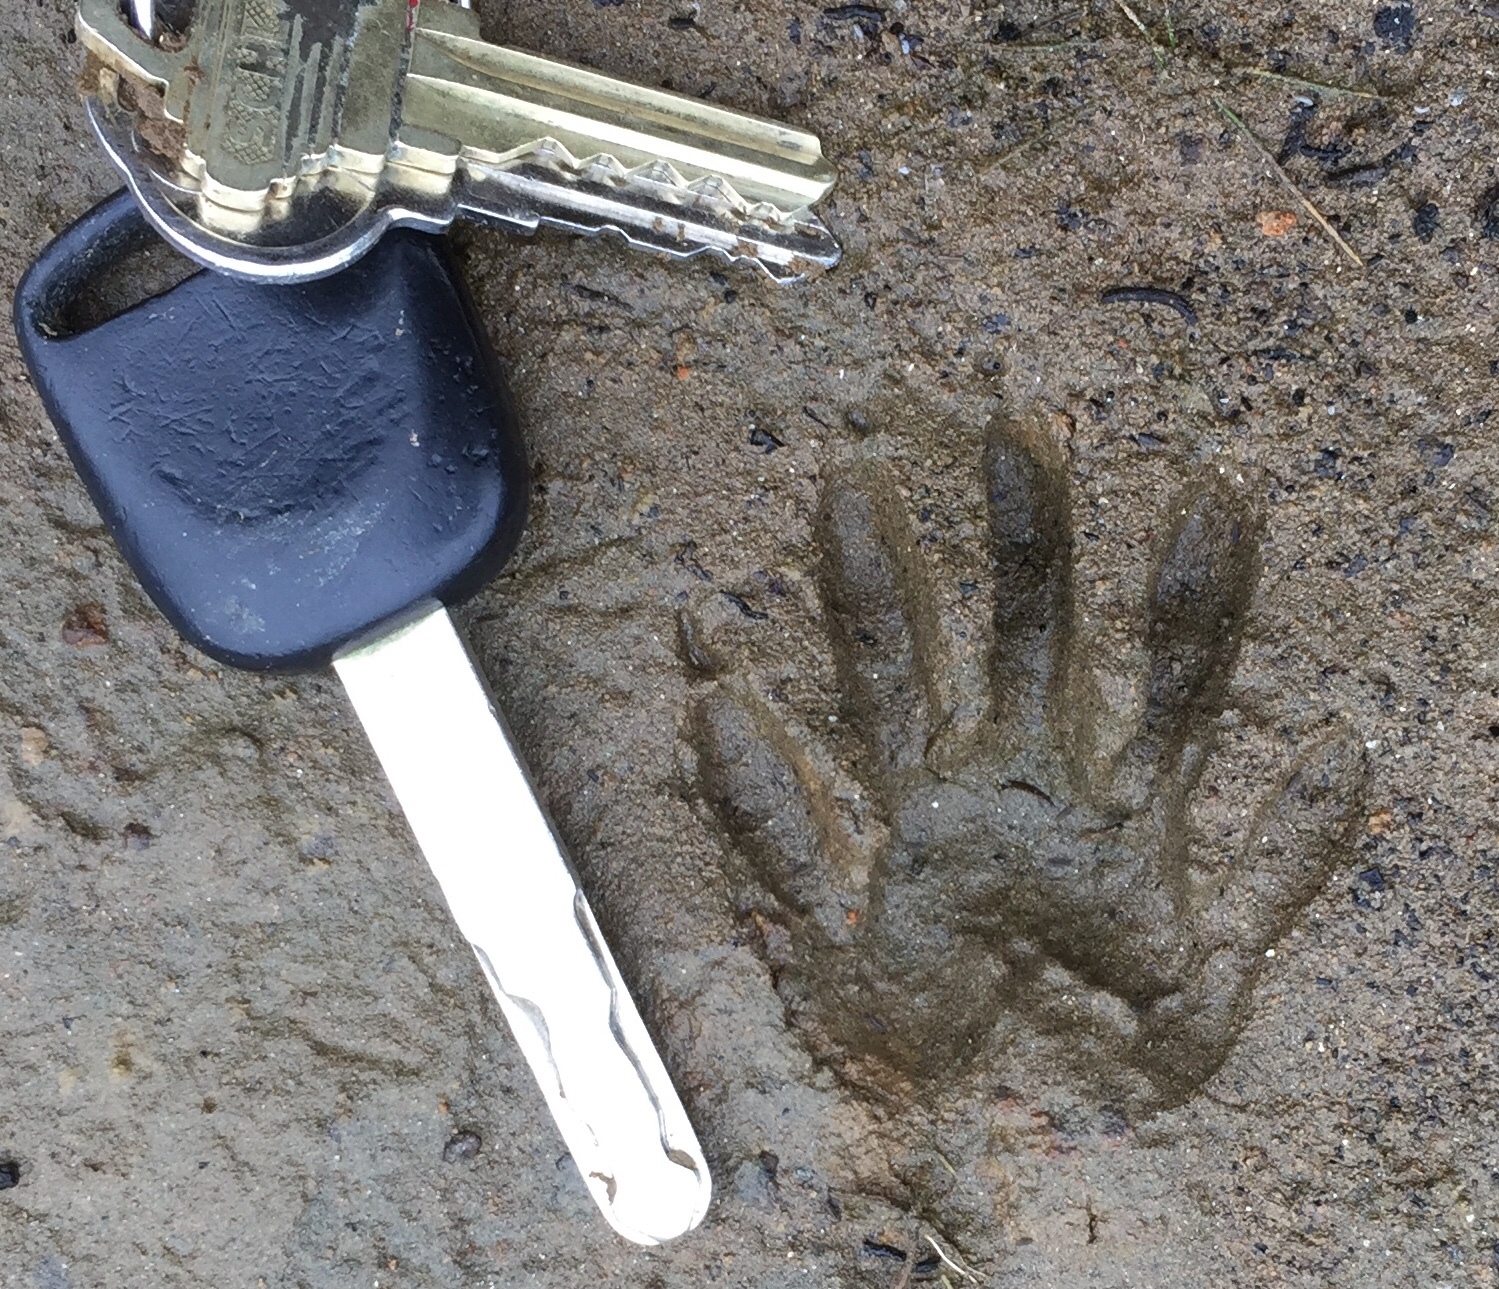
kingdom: Animalia
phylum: Chordata
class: Mammalia
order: Carnivora
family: Procyonidae
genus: Procyon
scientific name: Procyon lotor
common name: Raccoon
